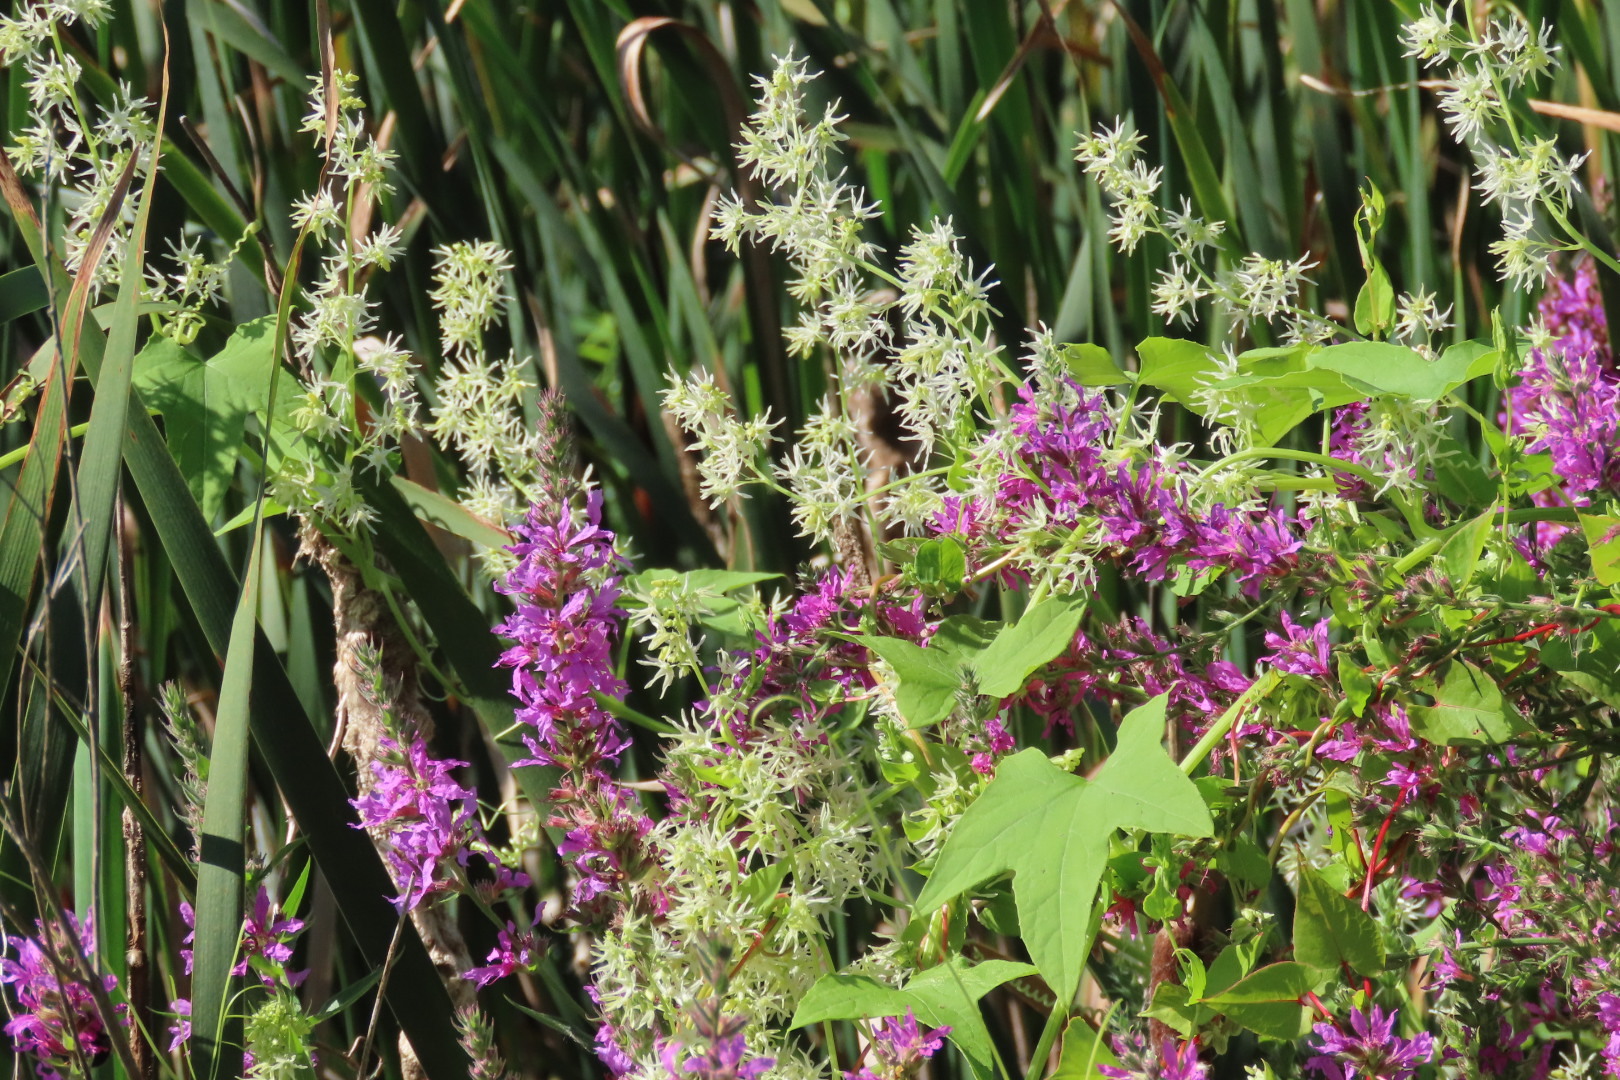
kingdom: Plantae
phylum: Tracheophyta
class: Magnoliopsida
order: Cucurbitales
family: Cucurbitaceae
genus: Echinocystis
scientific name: Echinocystis lobata
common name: Wild cucumber
